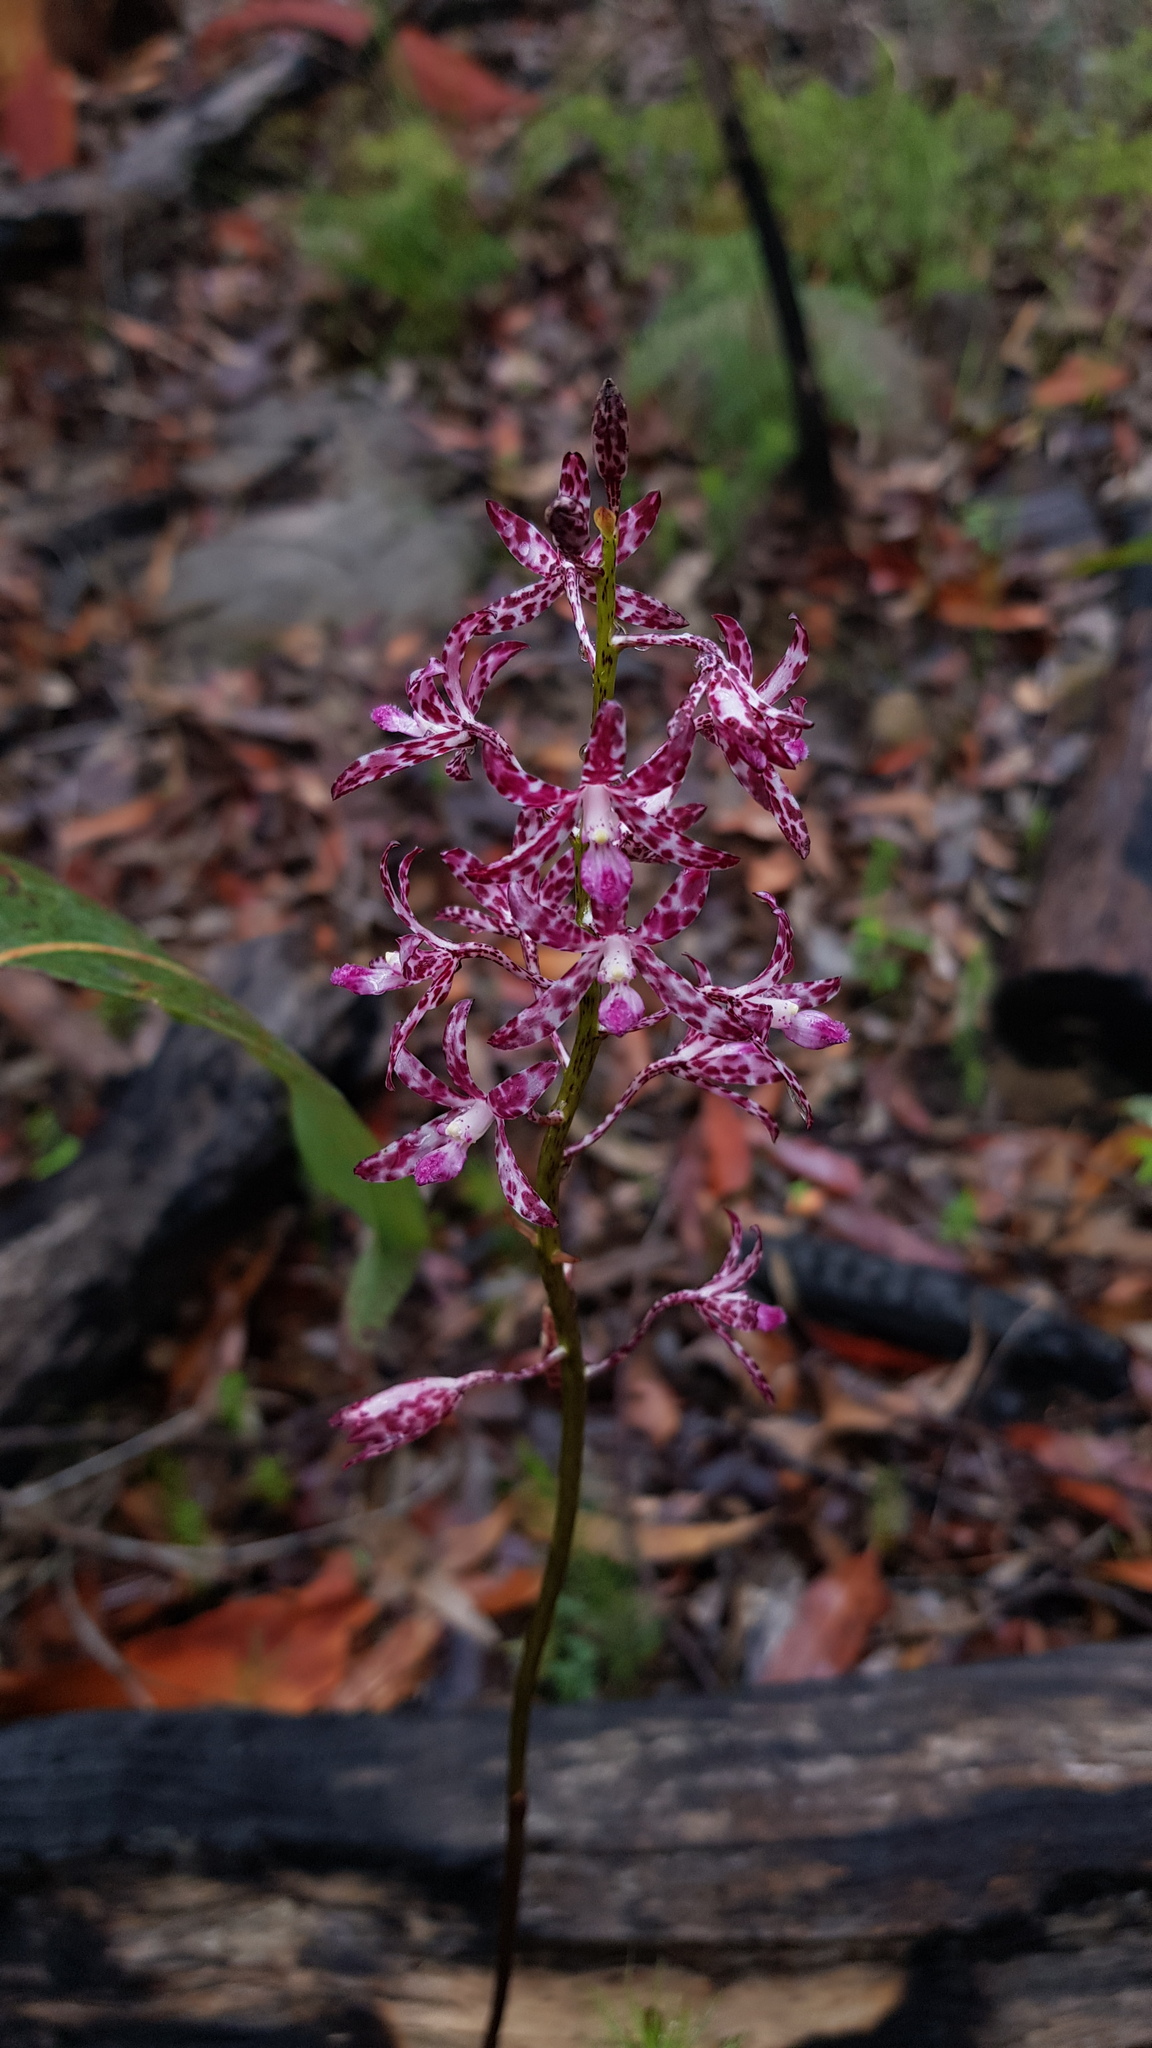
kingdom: Plantae
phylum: Tracheophyta
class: Liliopsida
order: Asparagales
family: Orchidaceae
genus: Dipodium
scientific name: Dipodium variegatum
